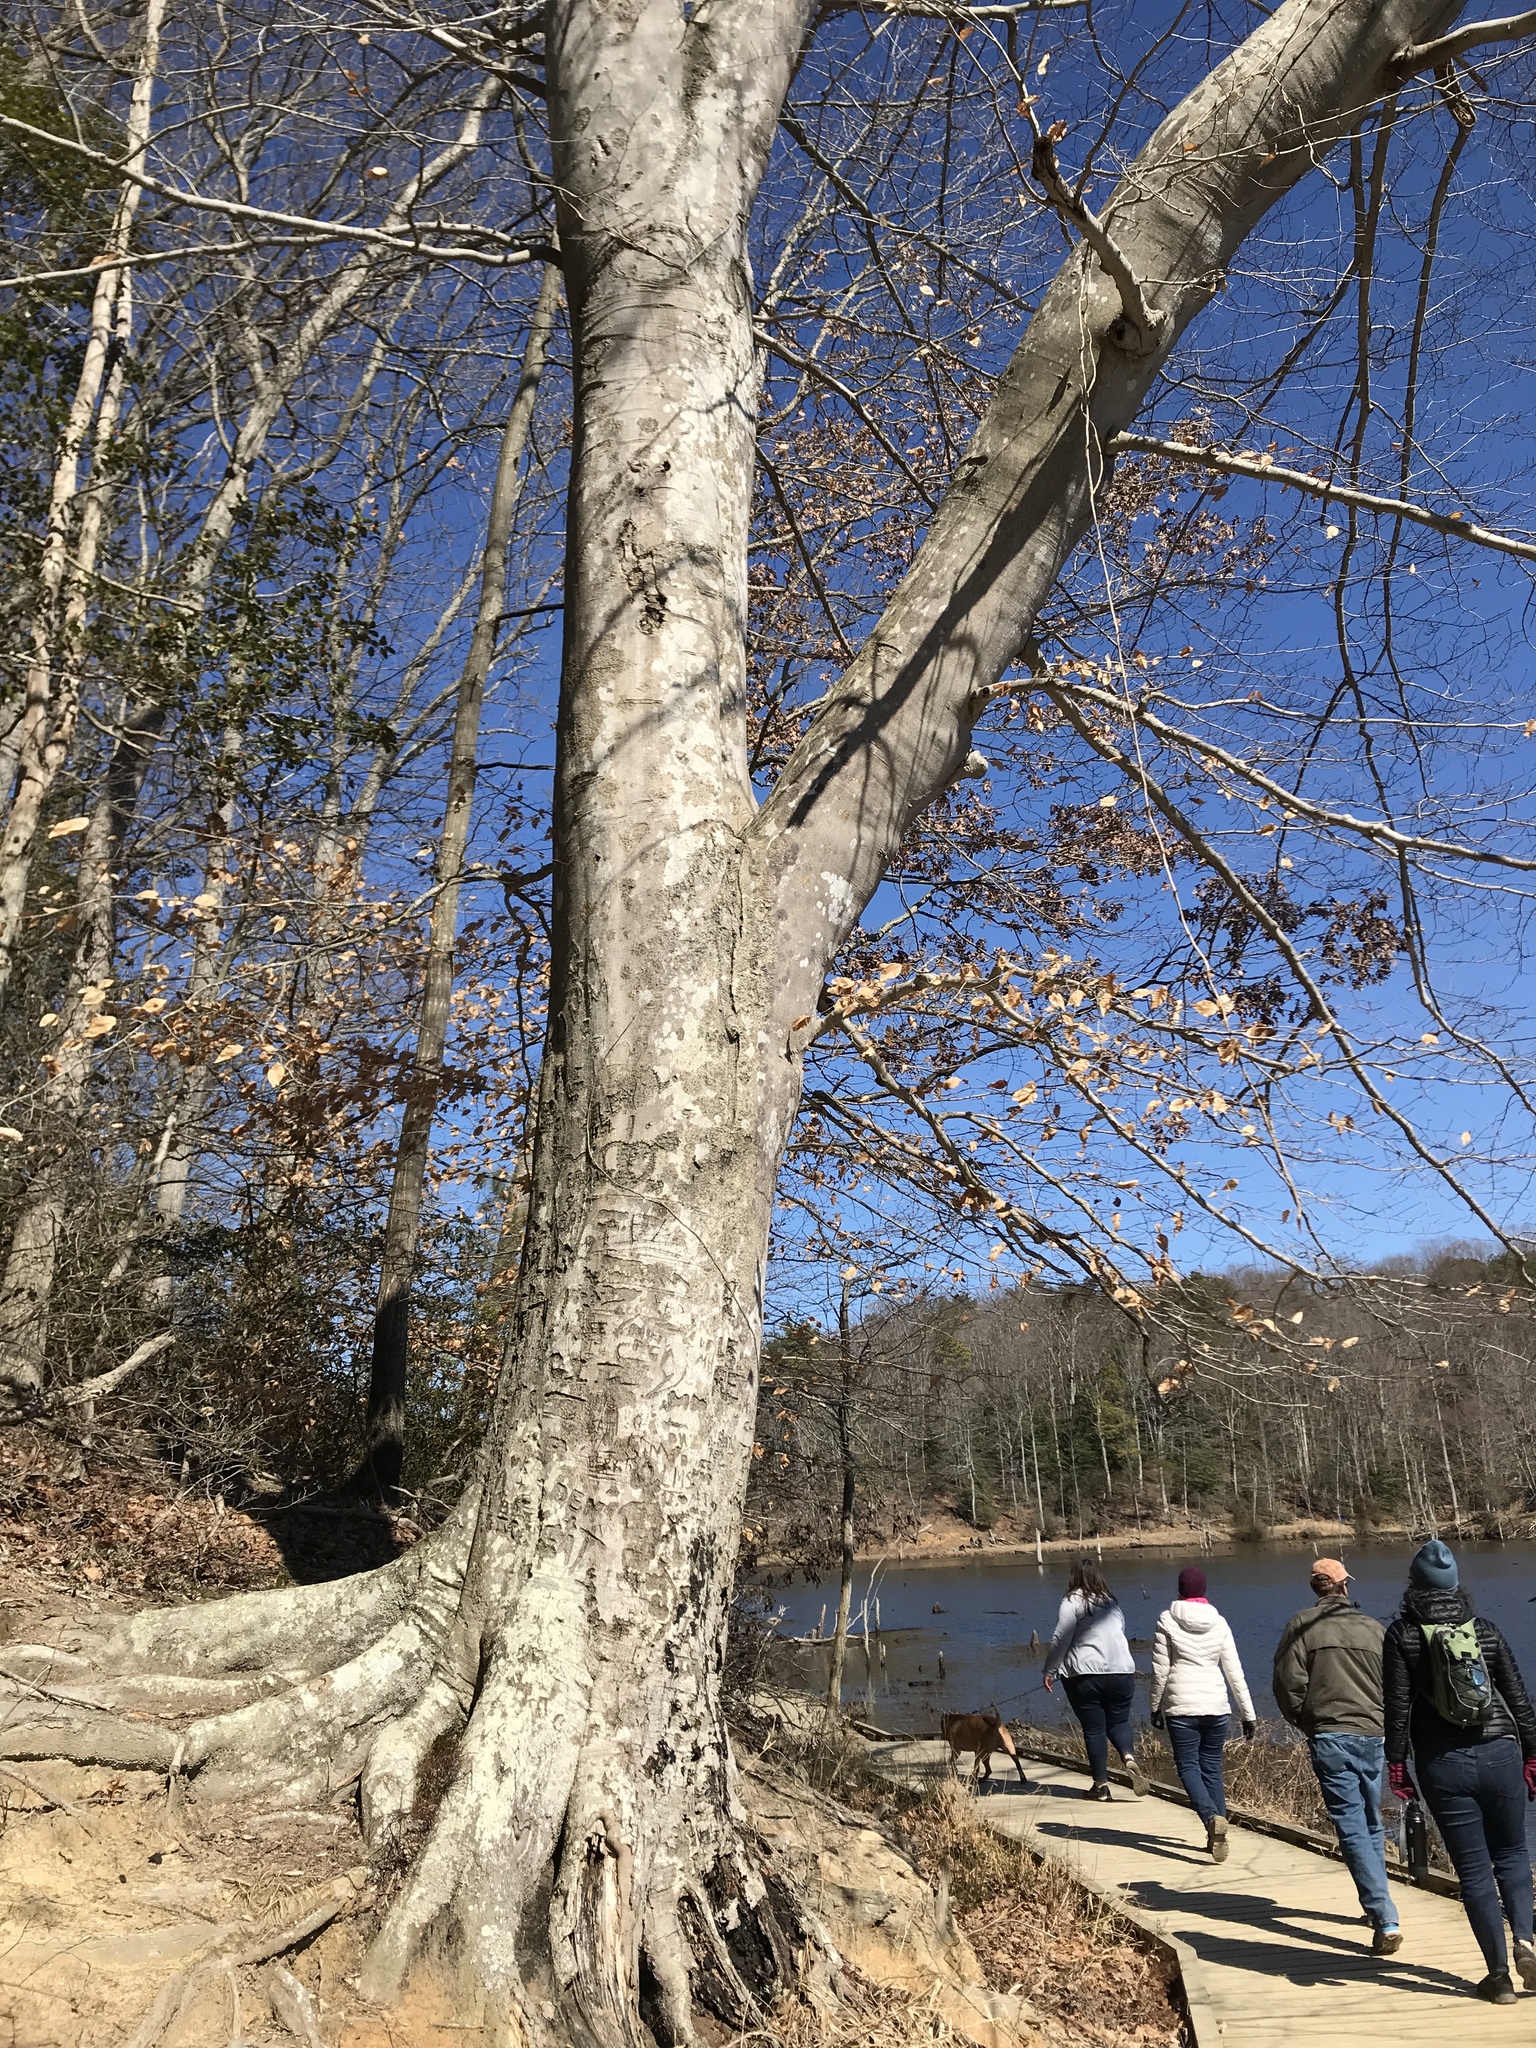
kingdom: Plantae
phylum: Tracheophyta
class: Magnoliopsida
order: Fagales
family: Fagaceae
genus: Fagus
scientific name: Fagus grandifolia
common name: American beech
